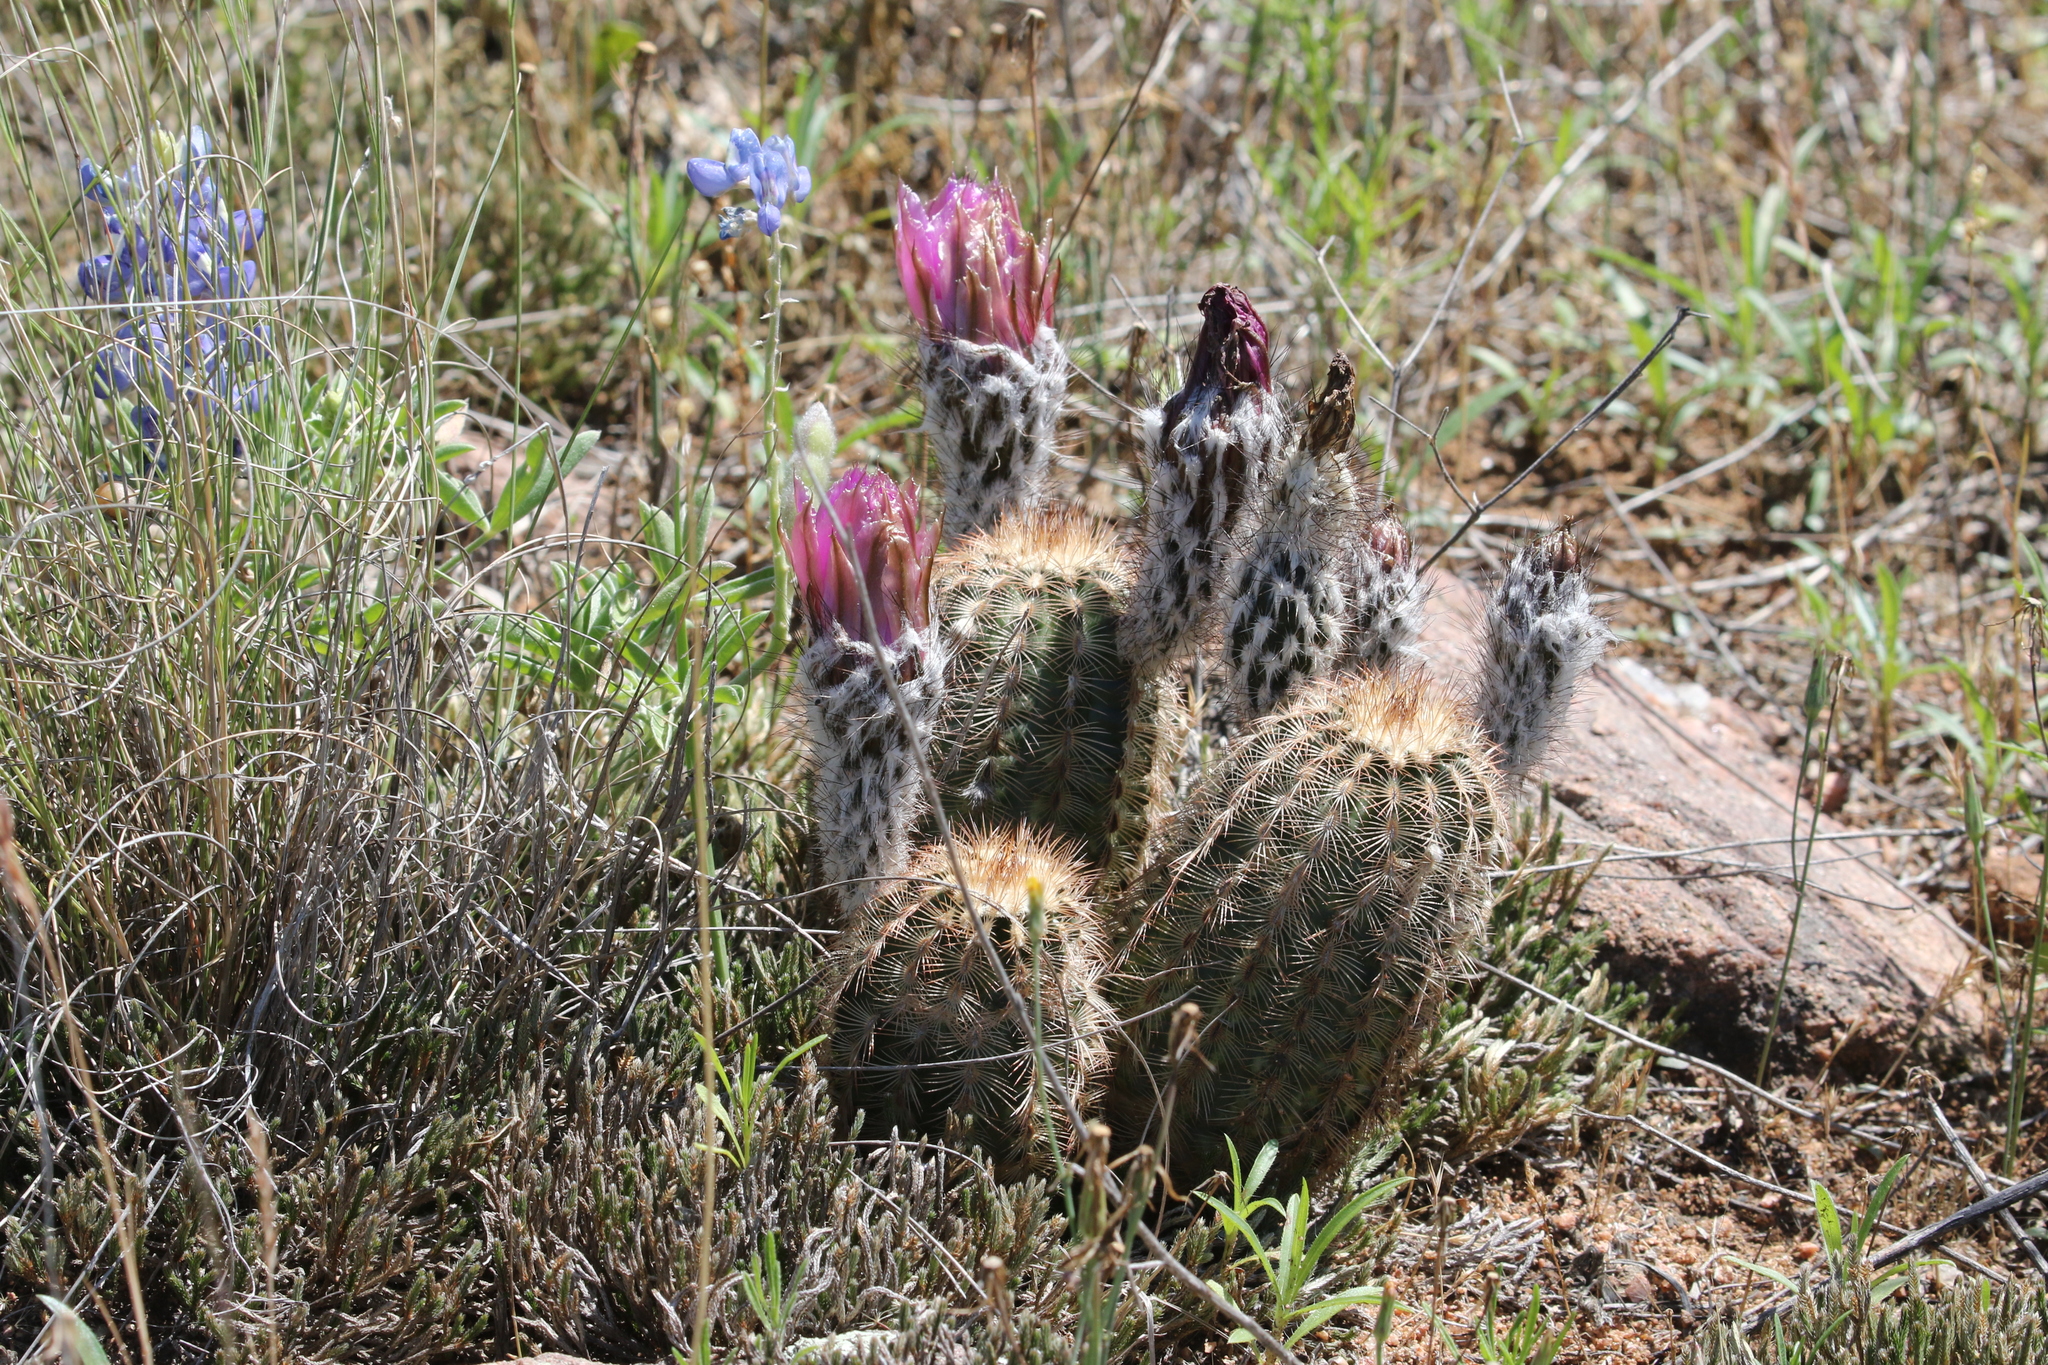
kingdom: Plantae
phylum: Tracheophyta
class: Magnoliopsida
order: Caryophyllales
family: Cactaceae
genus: Echinocereus
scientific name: Echinocereus reichenbachii
